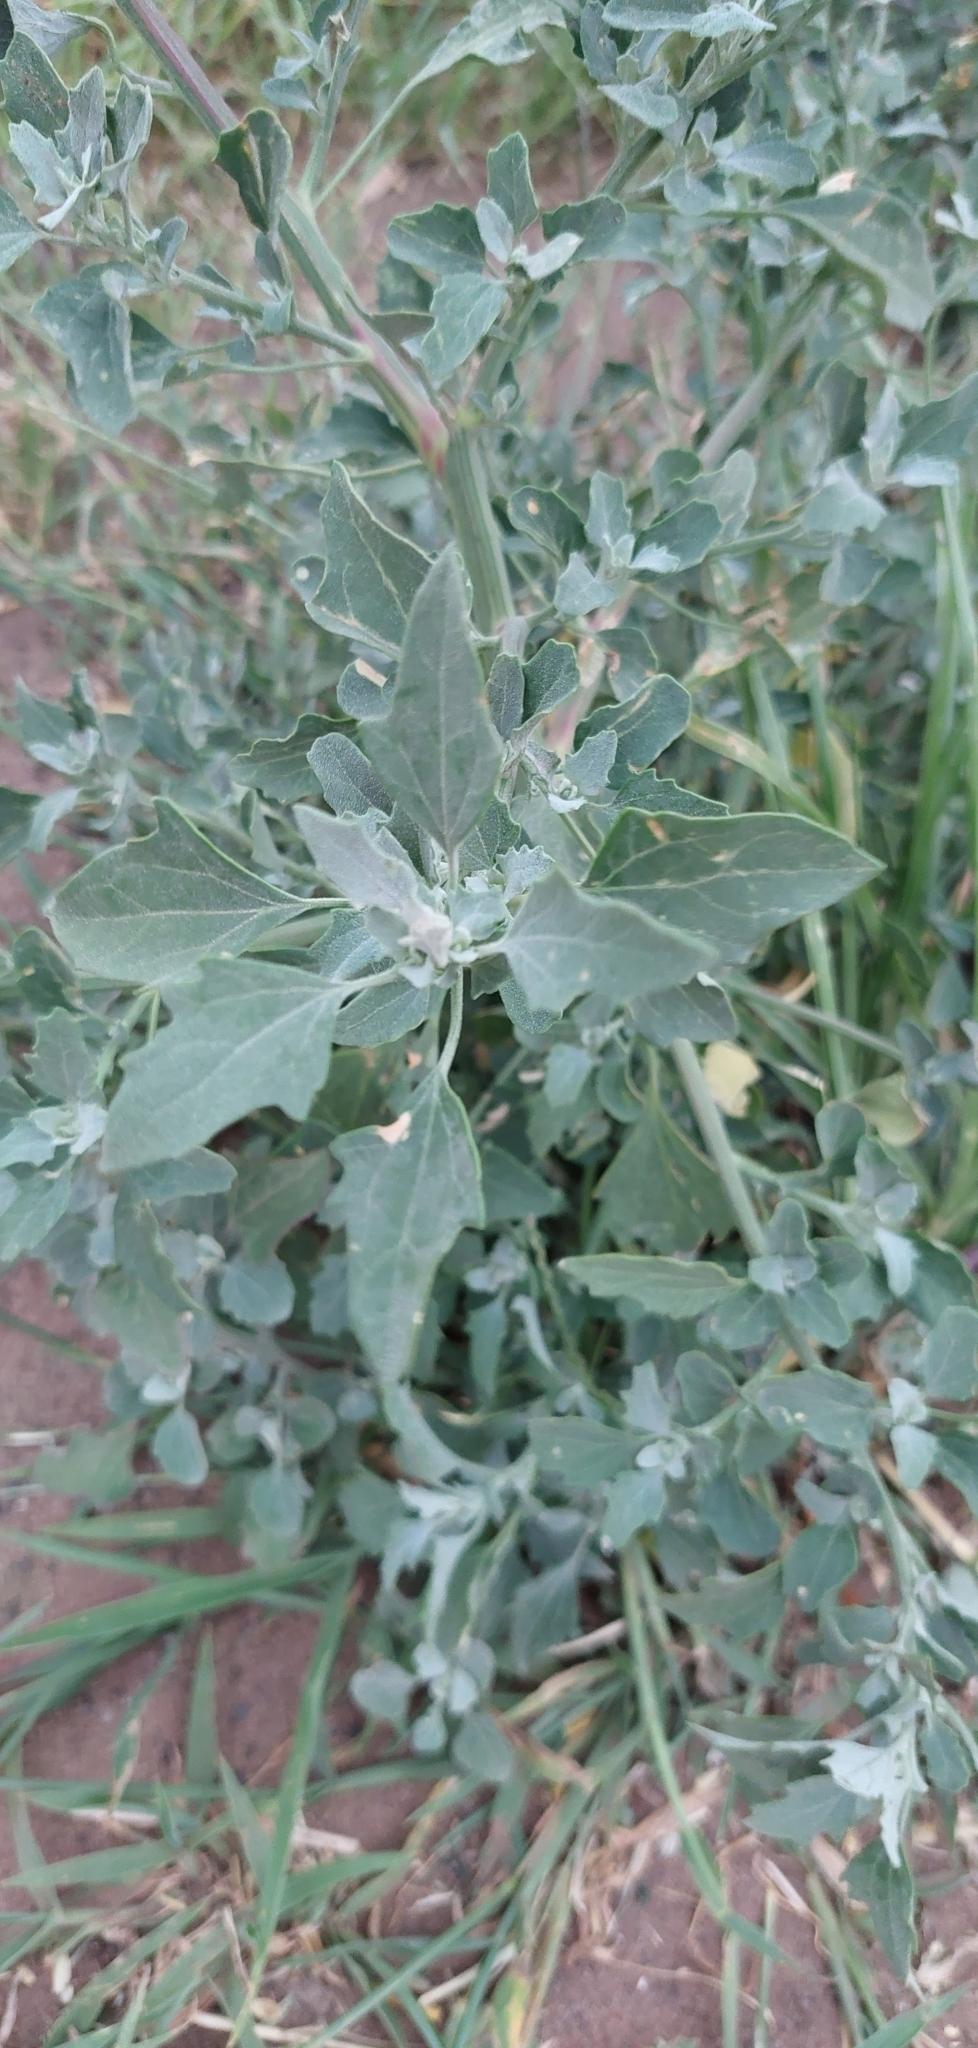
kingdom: Plantae
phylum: Tracheophyta
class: Magnoliopsida
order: Caryophyllales
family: Amaranthaceae
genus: Chenopodium
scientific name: Chenopodium album
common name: Fat-hen
